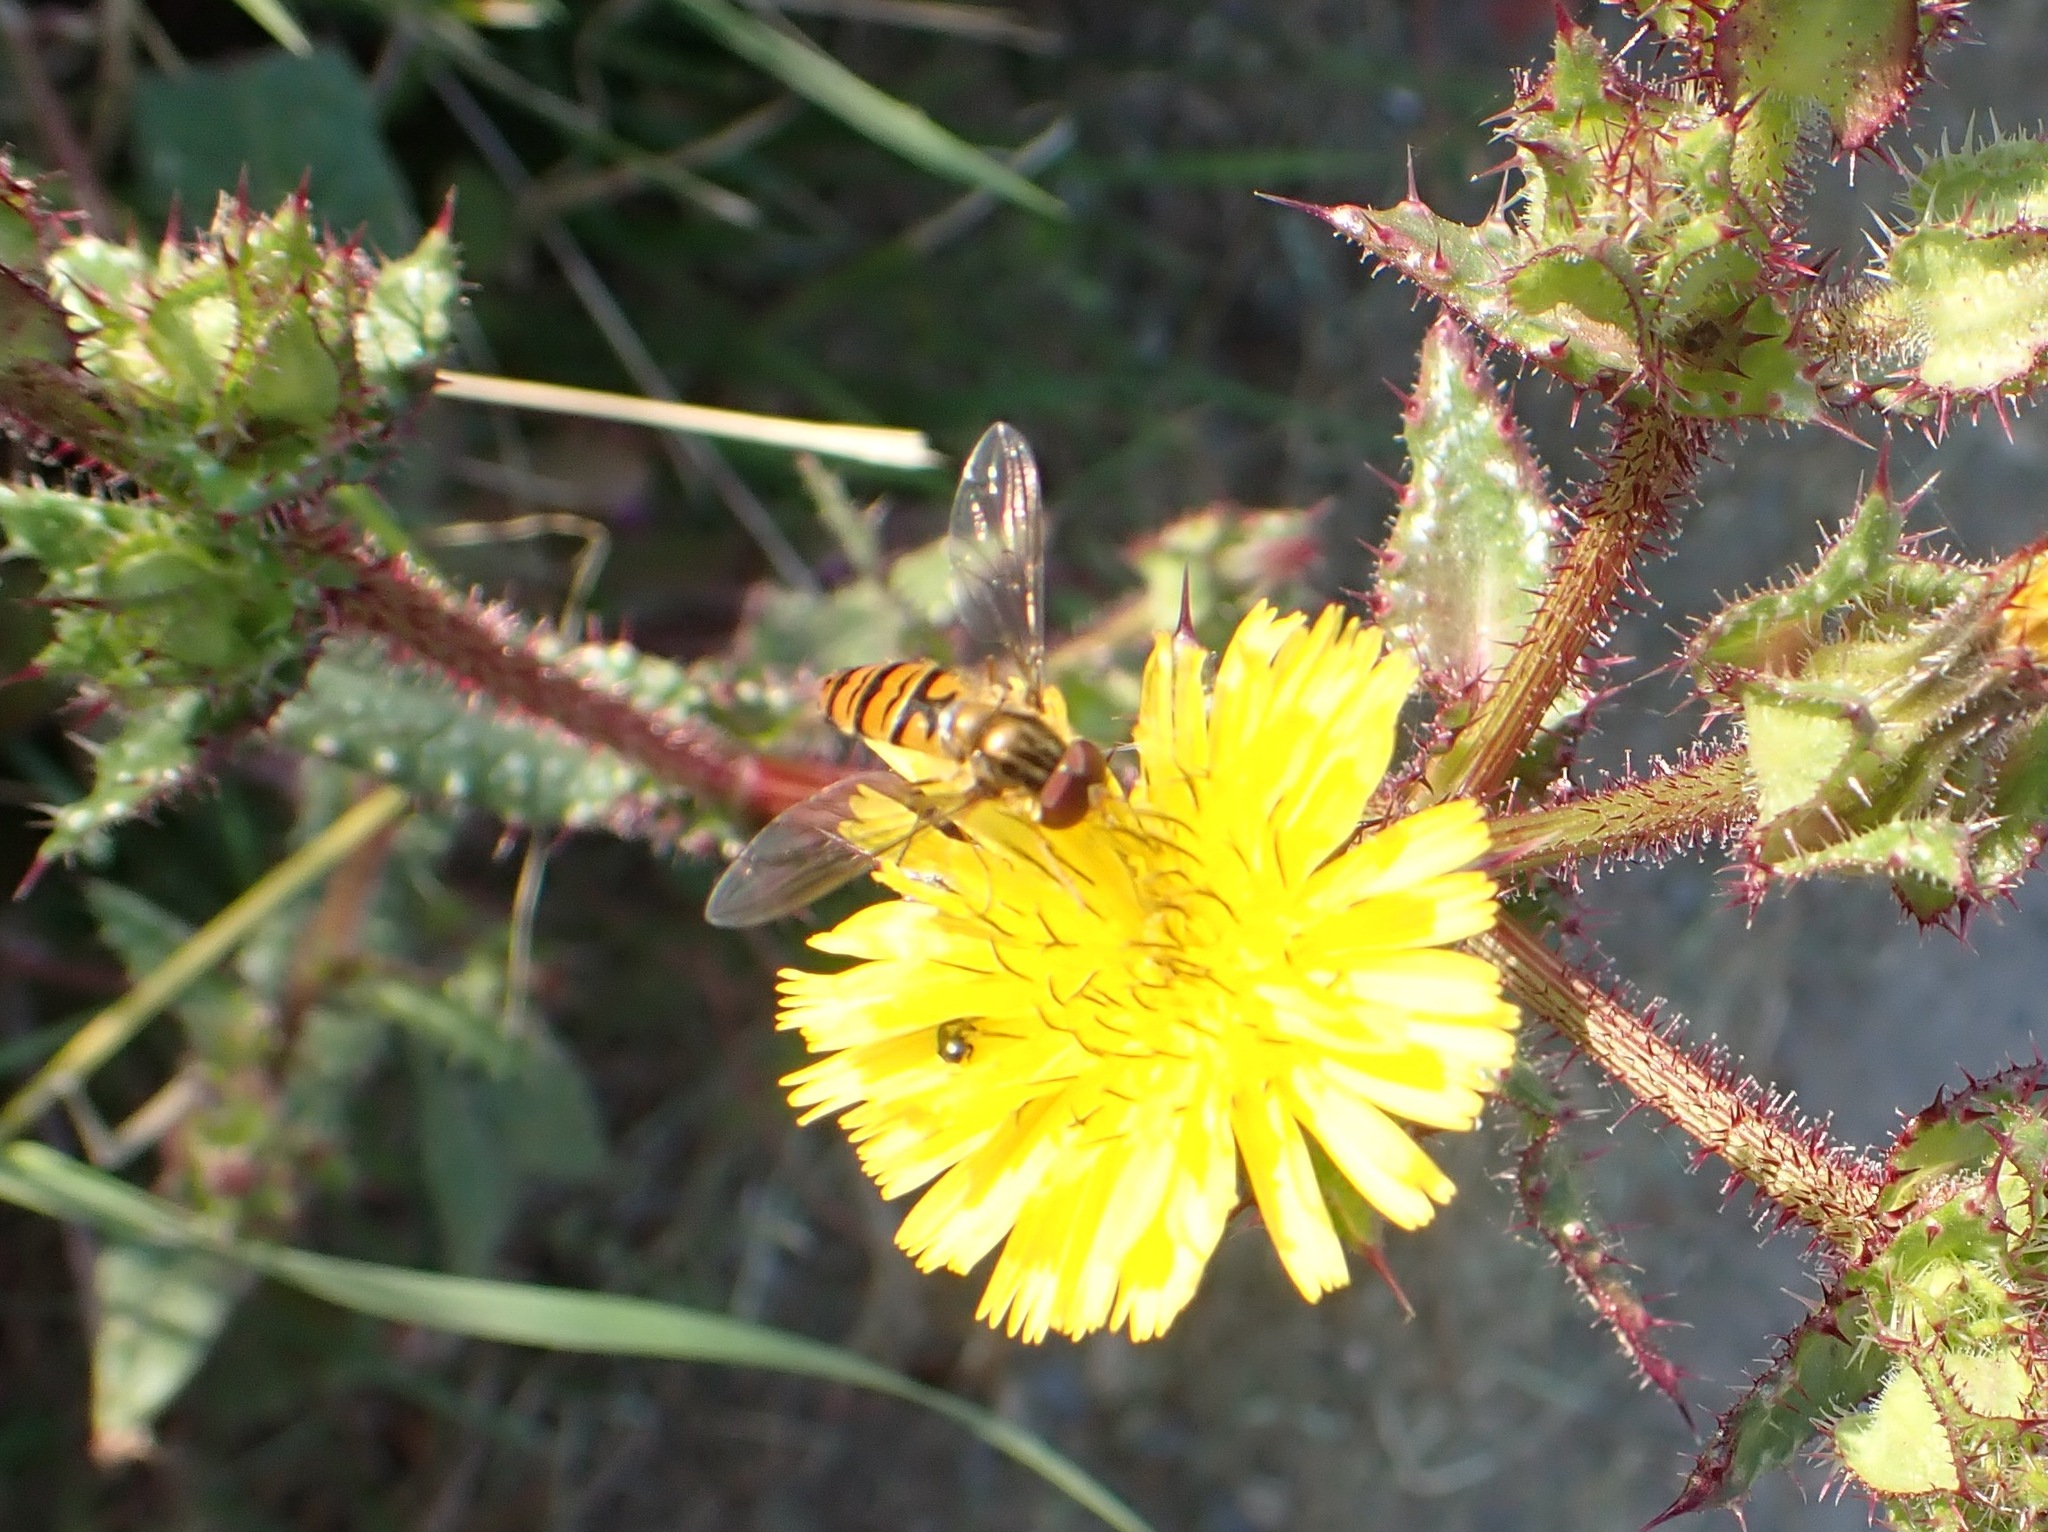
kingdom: Animalia
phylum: Arthropoda
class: Insecta
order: Diptera
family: Syrphidae
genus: Episyrphus
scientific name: Episyrphus balteatus
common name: Marmalade hoverfly
